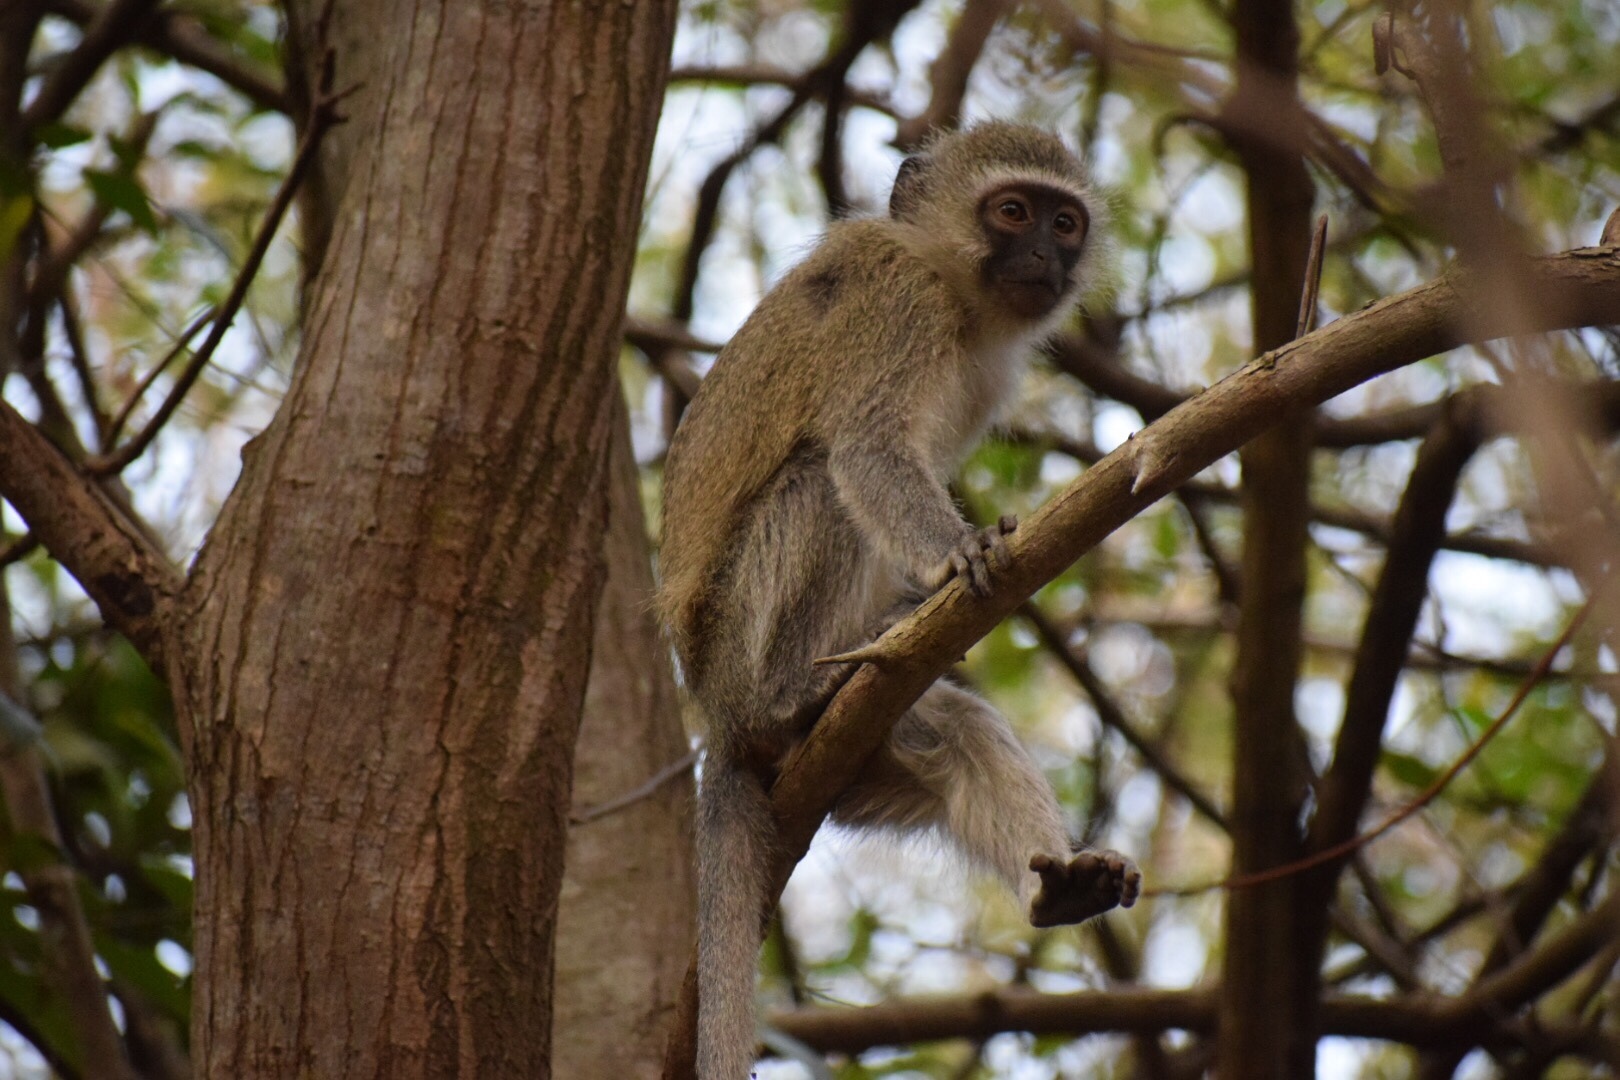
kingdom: Animalia
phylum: Chordata
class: Mammalia
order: Primates
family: Cercopithecidae
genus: Chlorocebus
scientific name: Chlorocebus pygerythrus
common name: Vervet monkey
